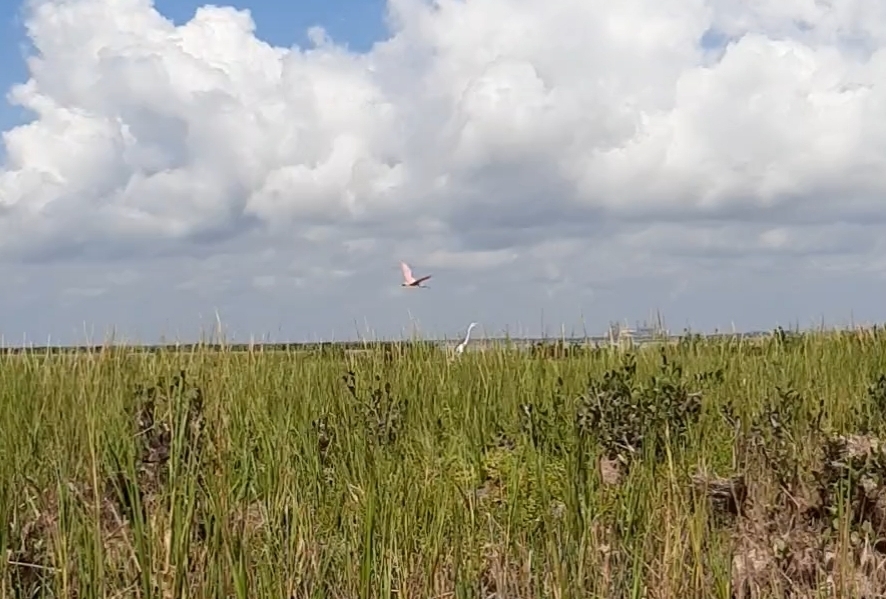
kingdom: Animalia
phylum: Chordata
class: Aves
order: Pelecaniformes
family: Ardeidae
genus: Ardea
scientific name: Ardea alba
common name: Great egret
